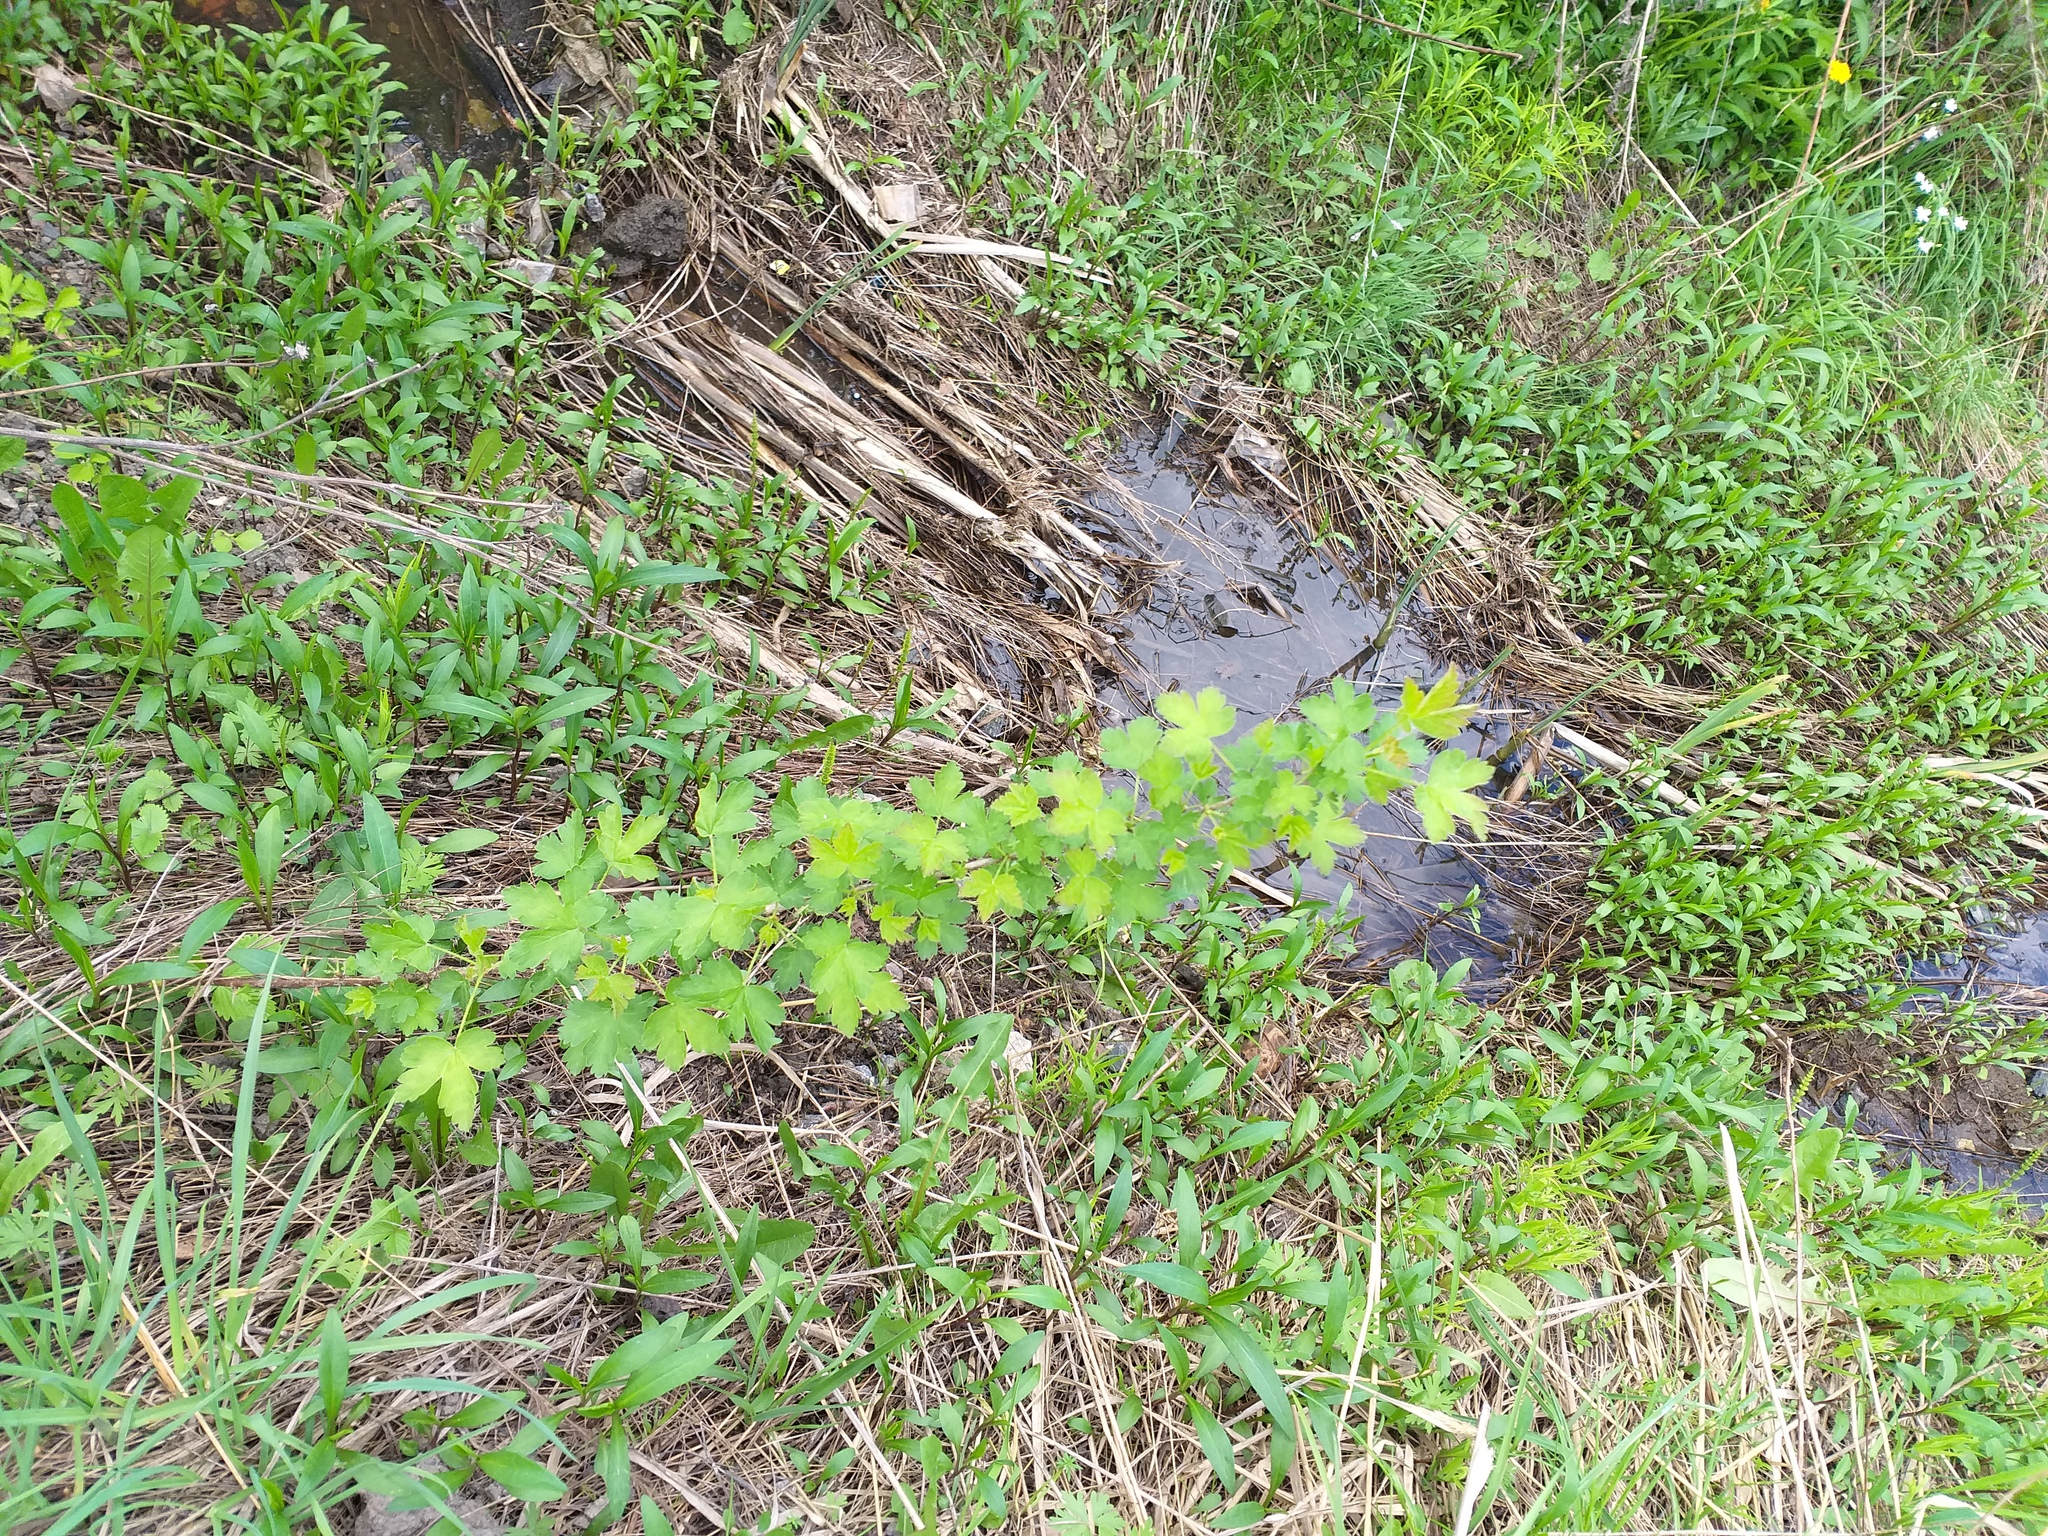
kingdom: Plantae
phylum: Tracheophyta
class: Magnoliopsida
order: Saxifragales
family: Grossulariaceae
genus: Ribes
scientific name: Ribes uva-crispa
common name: Gooseberry
